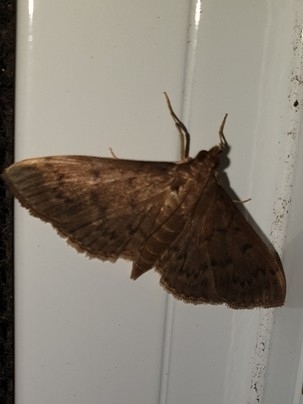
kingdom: Animalia
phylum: Arthropoda
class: Insecta
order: Lepidoptera
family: Crambidae
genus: Herpetogramma
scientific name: Herpetogramma licarsisalis
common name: Grass webworm
